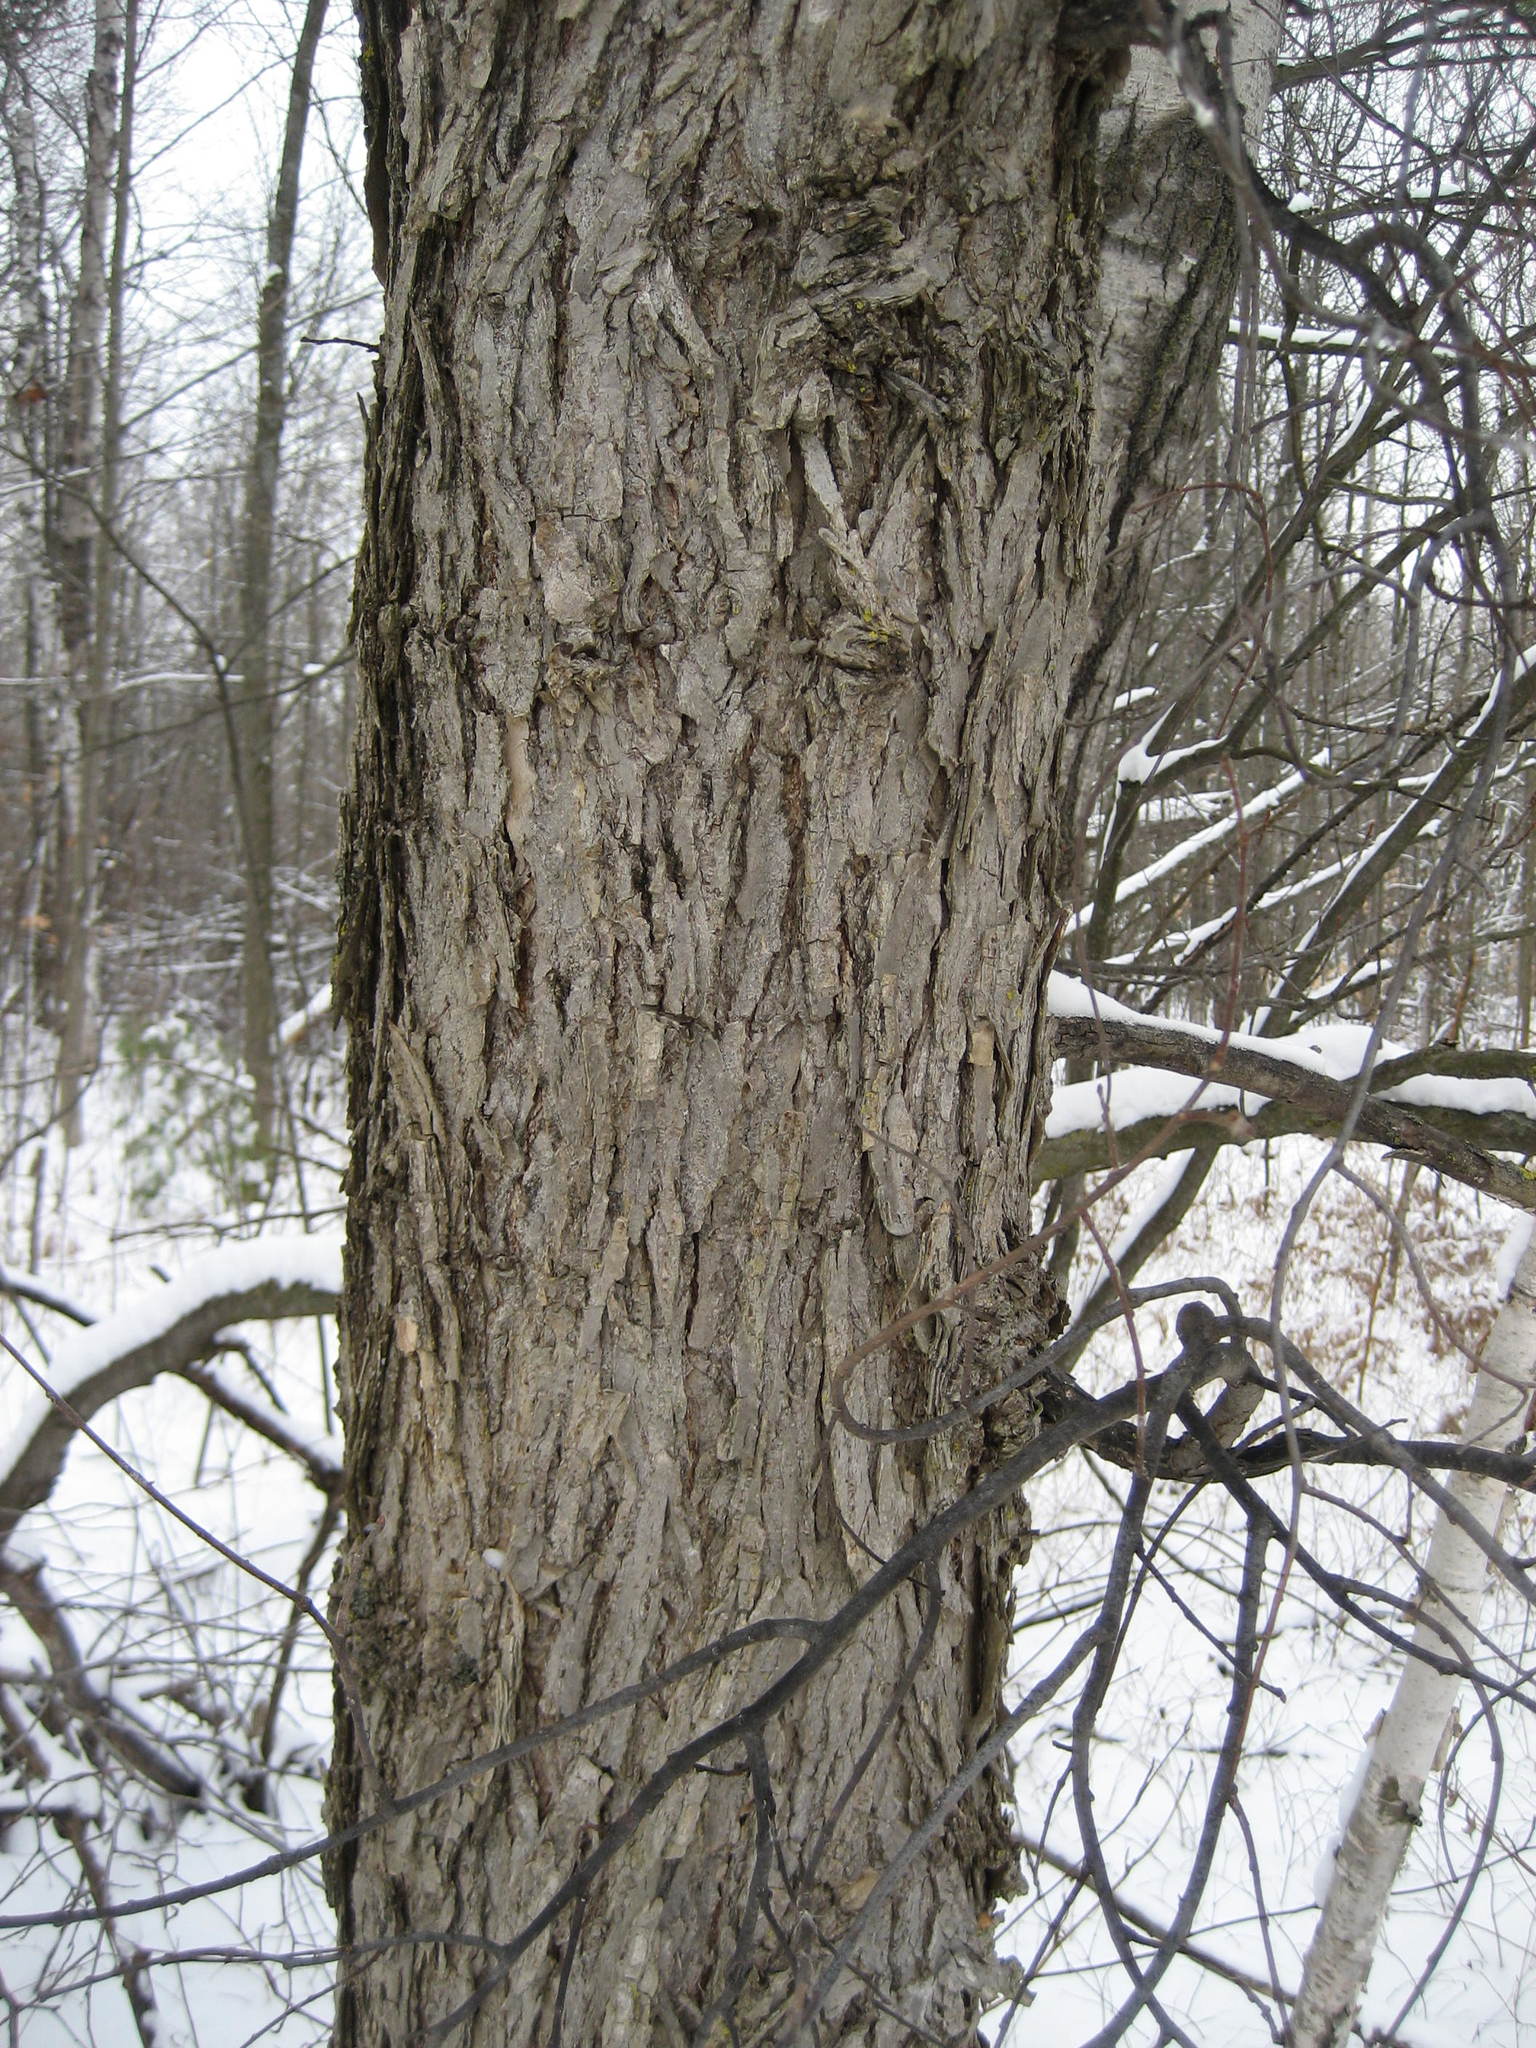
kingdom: Plantae
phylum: Tracheophyta
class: Magnoliopsida
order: Rosales
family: Ulmaceae
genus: Ulmus
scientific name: Ulmus americana
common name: American elm
